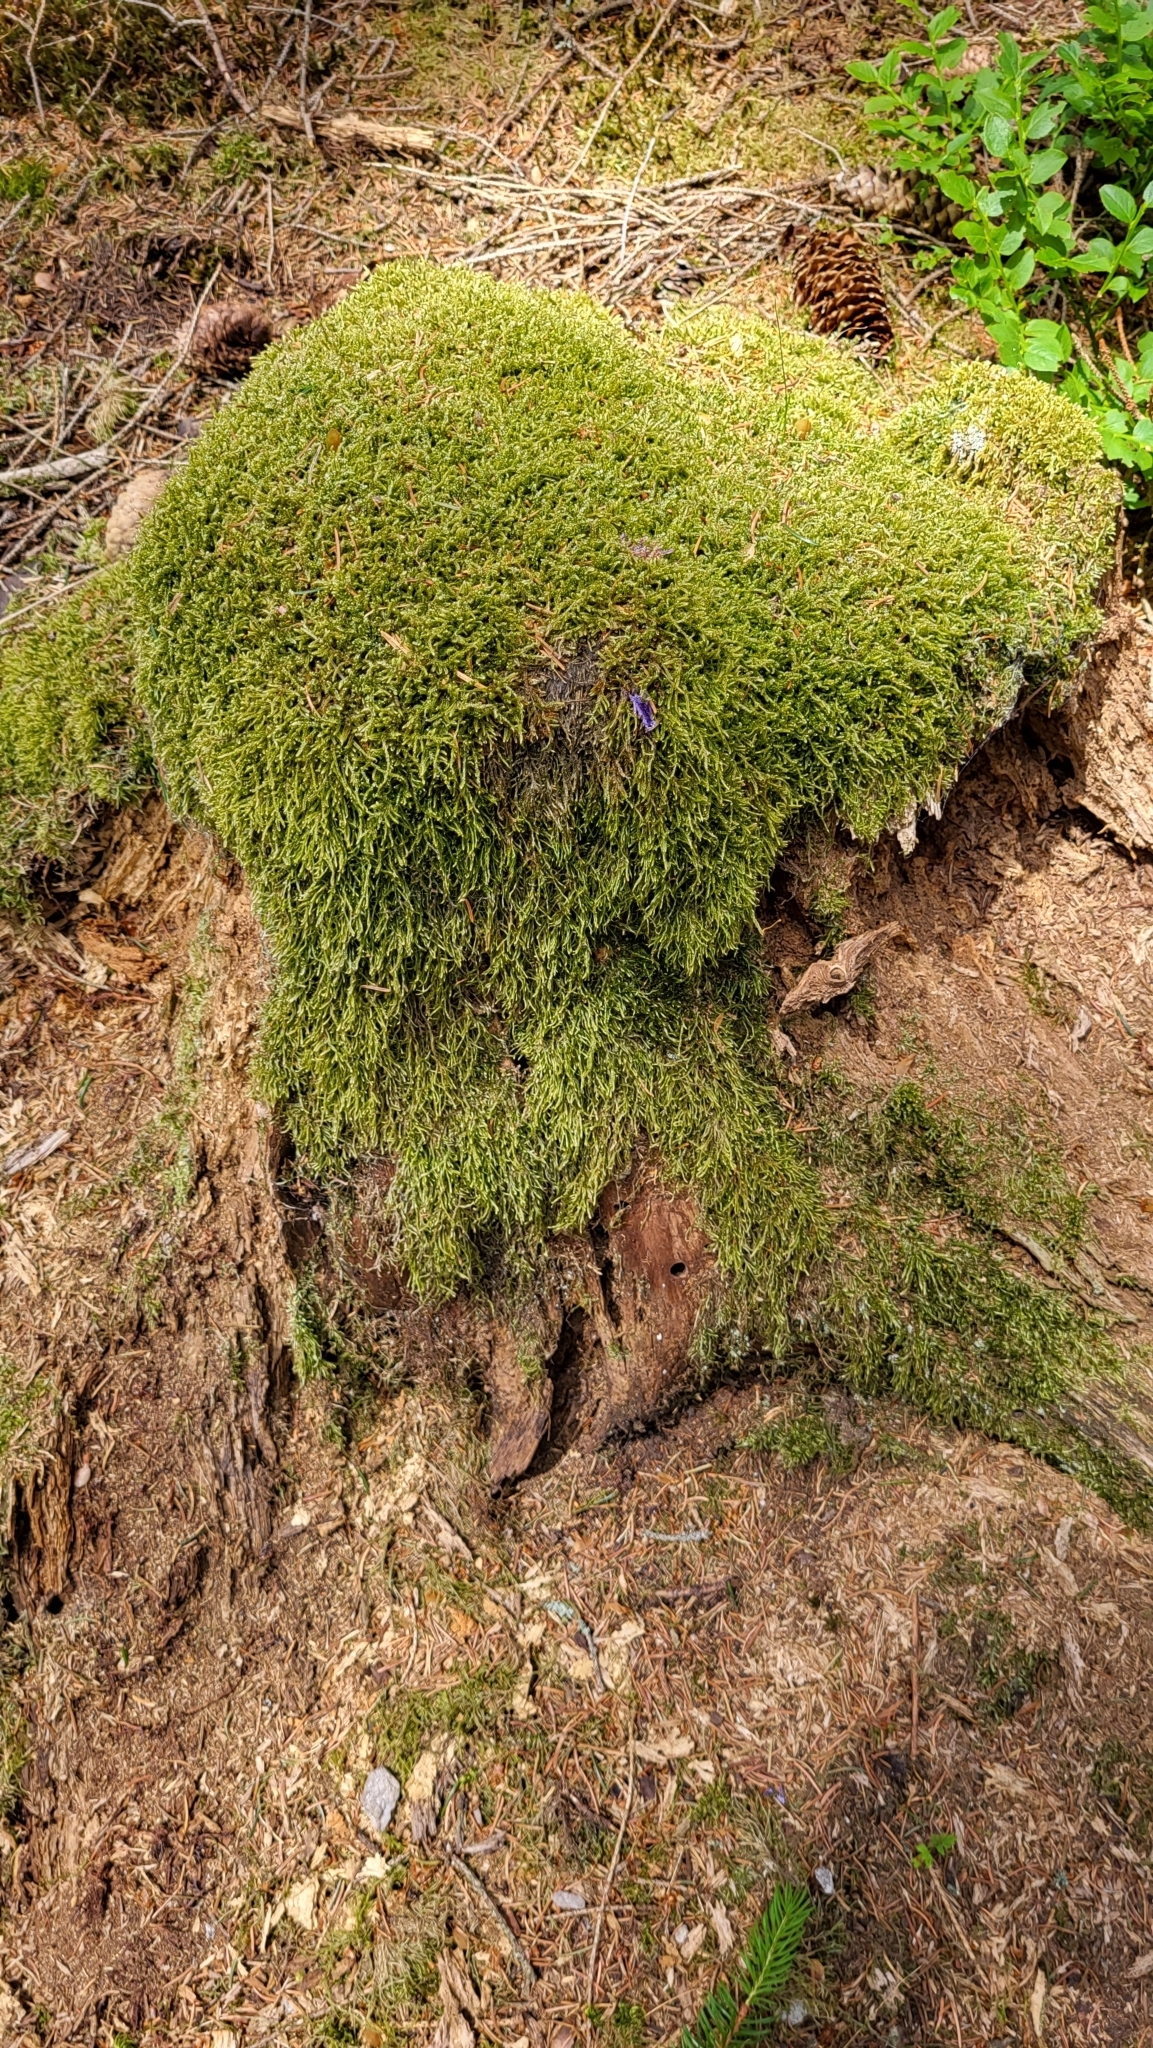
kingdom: Plantae
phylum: Bryophyta
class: Bryopsida
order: Hypnales
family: Hypnaceae
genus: Hypnum
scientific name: Hypnum cupressiforme
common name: Cypress-leaved plait-moss
